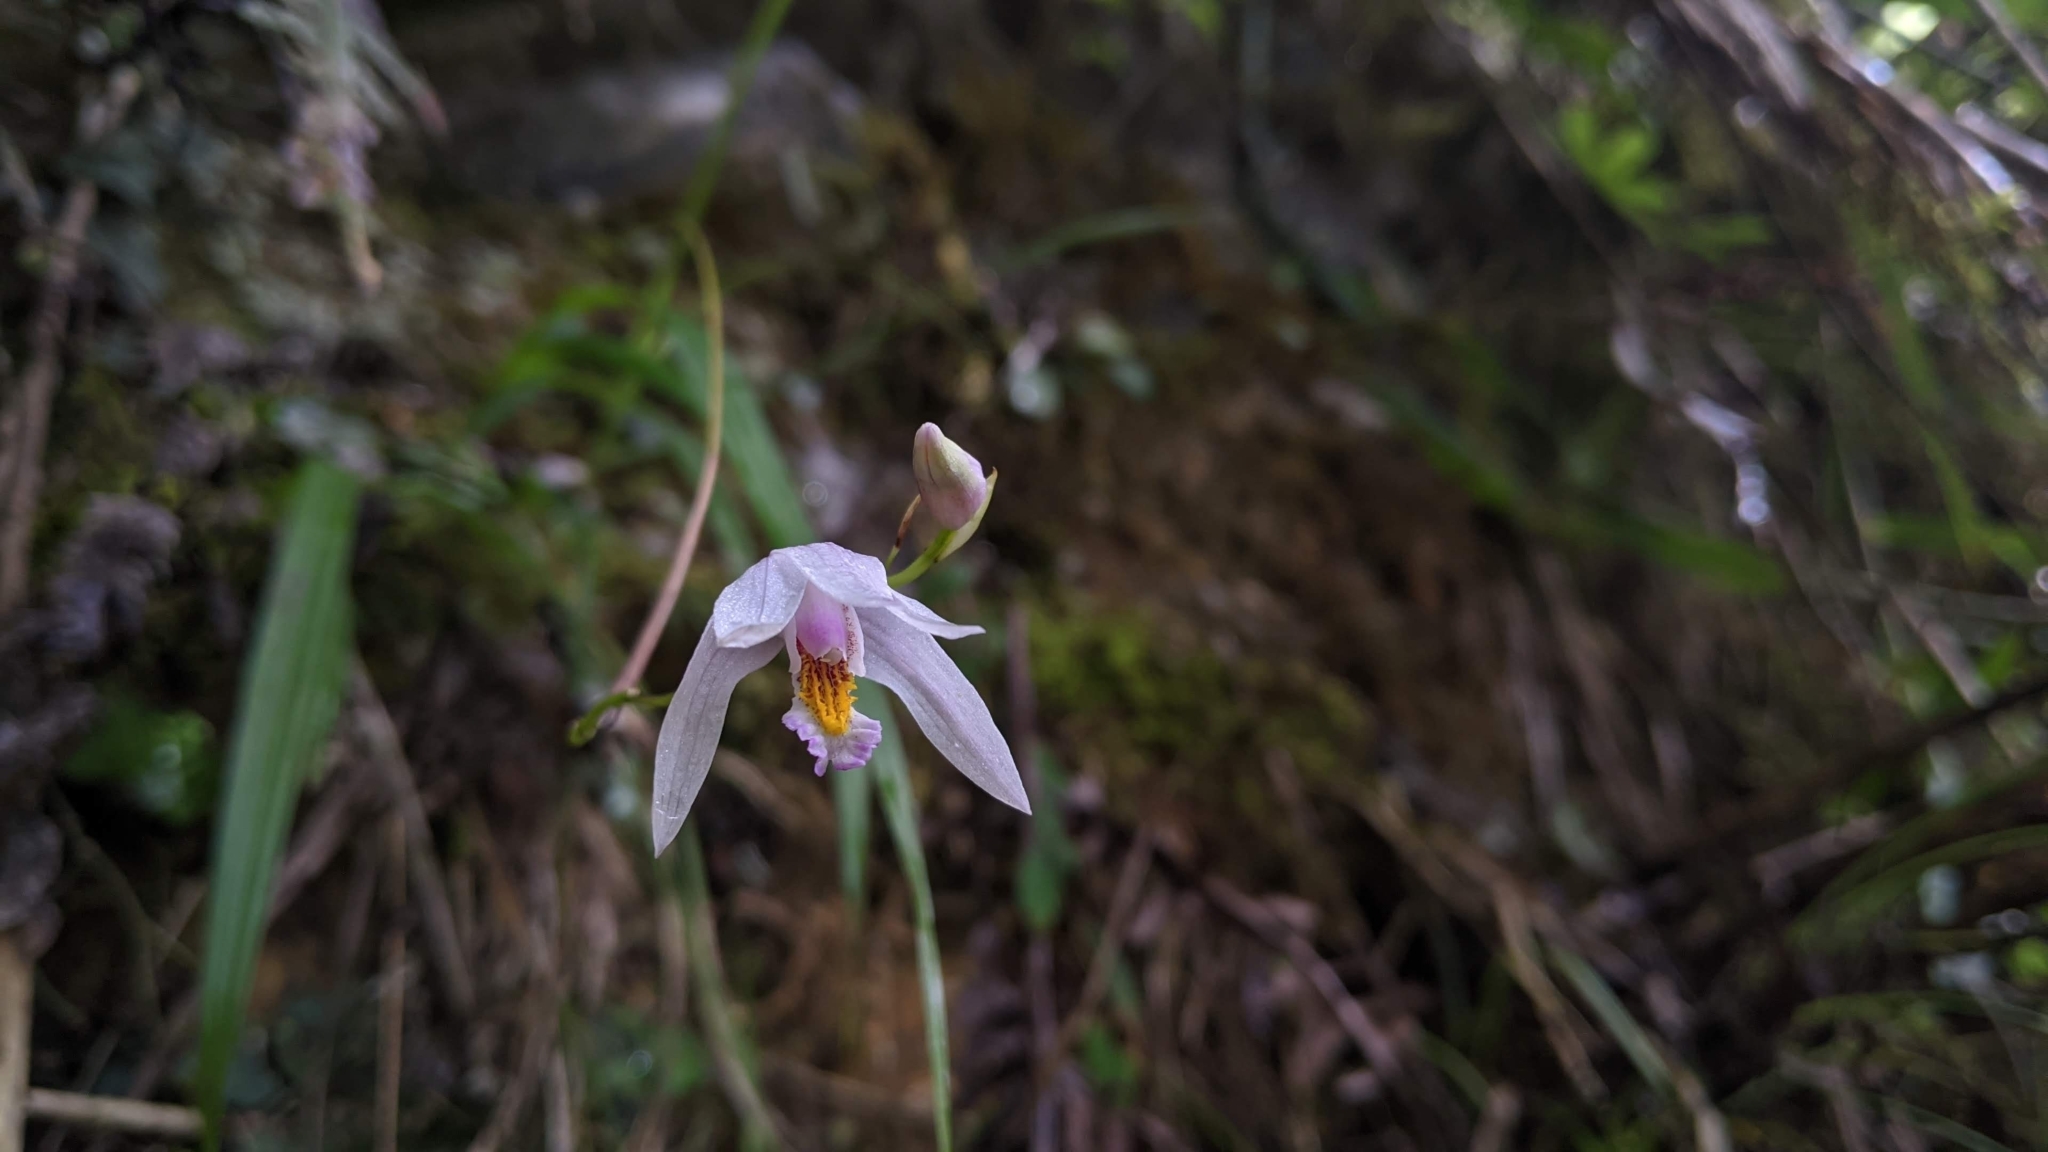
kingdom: Plantae
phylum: Tracheophyta
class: Liliopsida
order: Asparagales
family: Orchidaceae
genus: Bletilla
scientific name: Bletilla formosana
